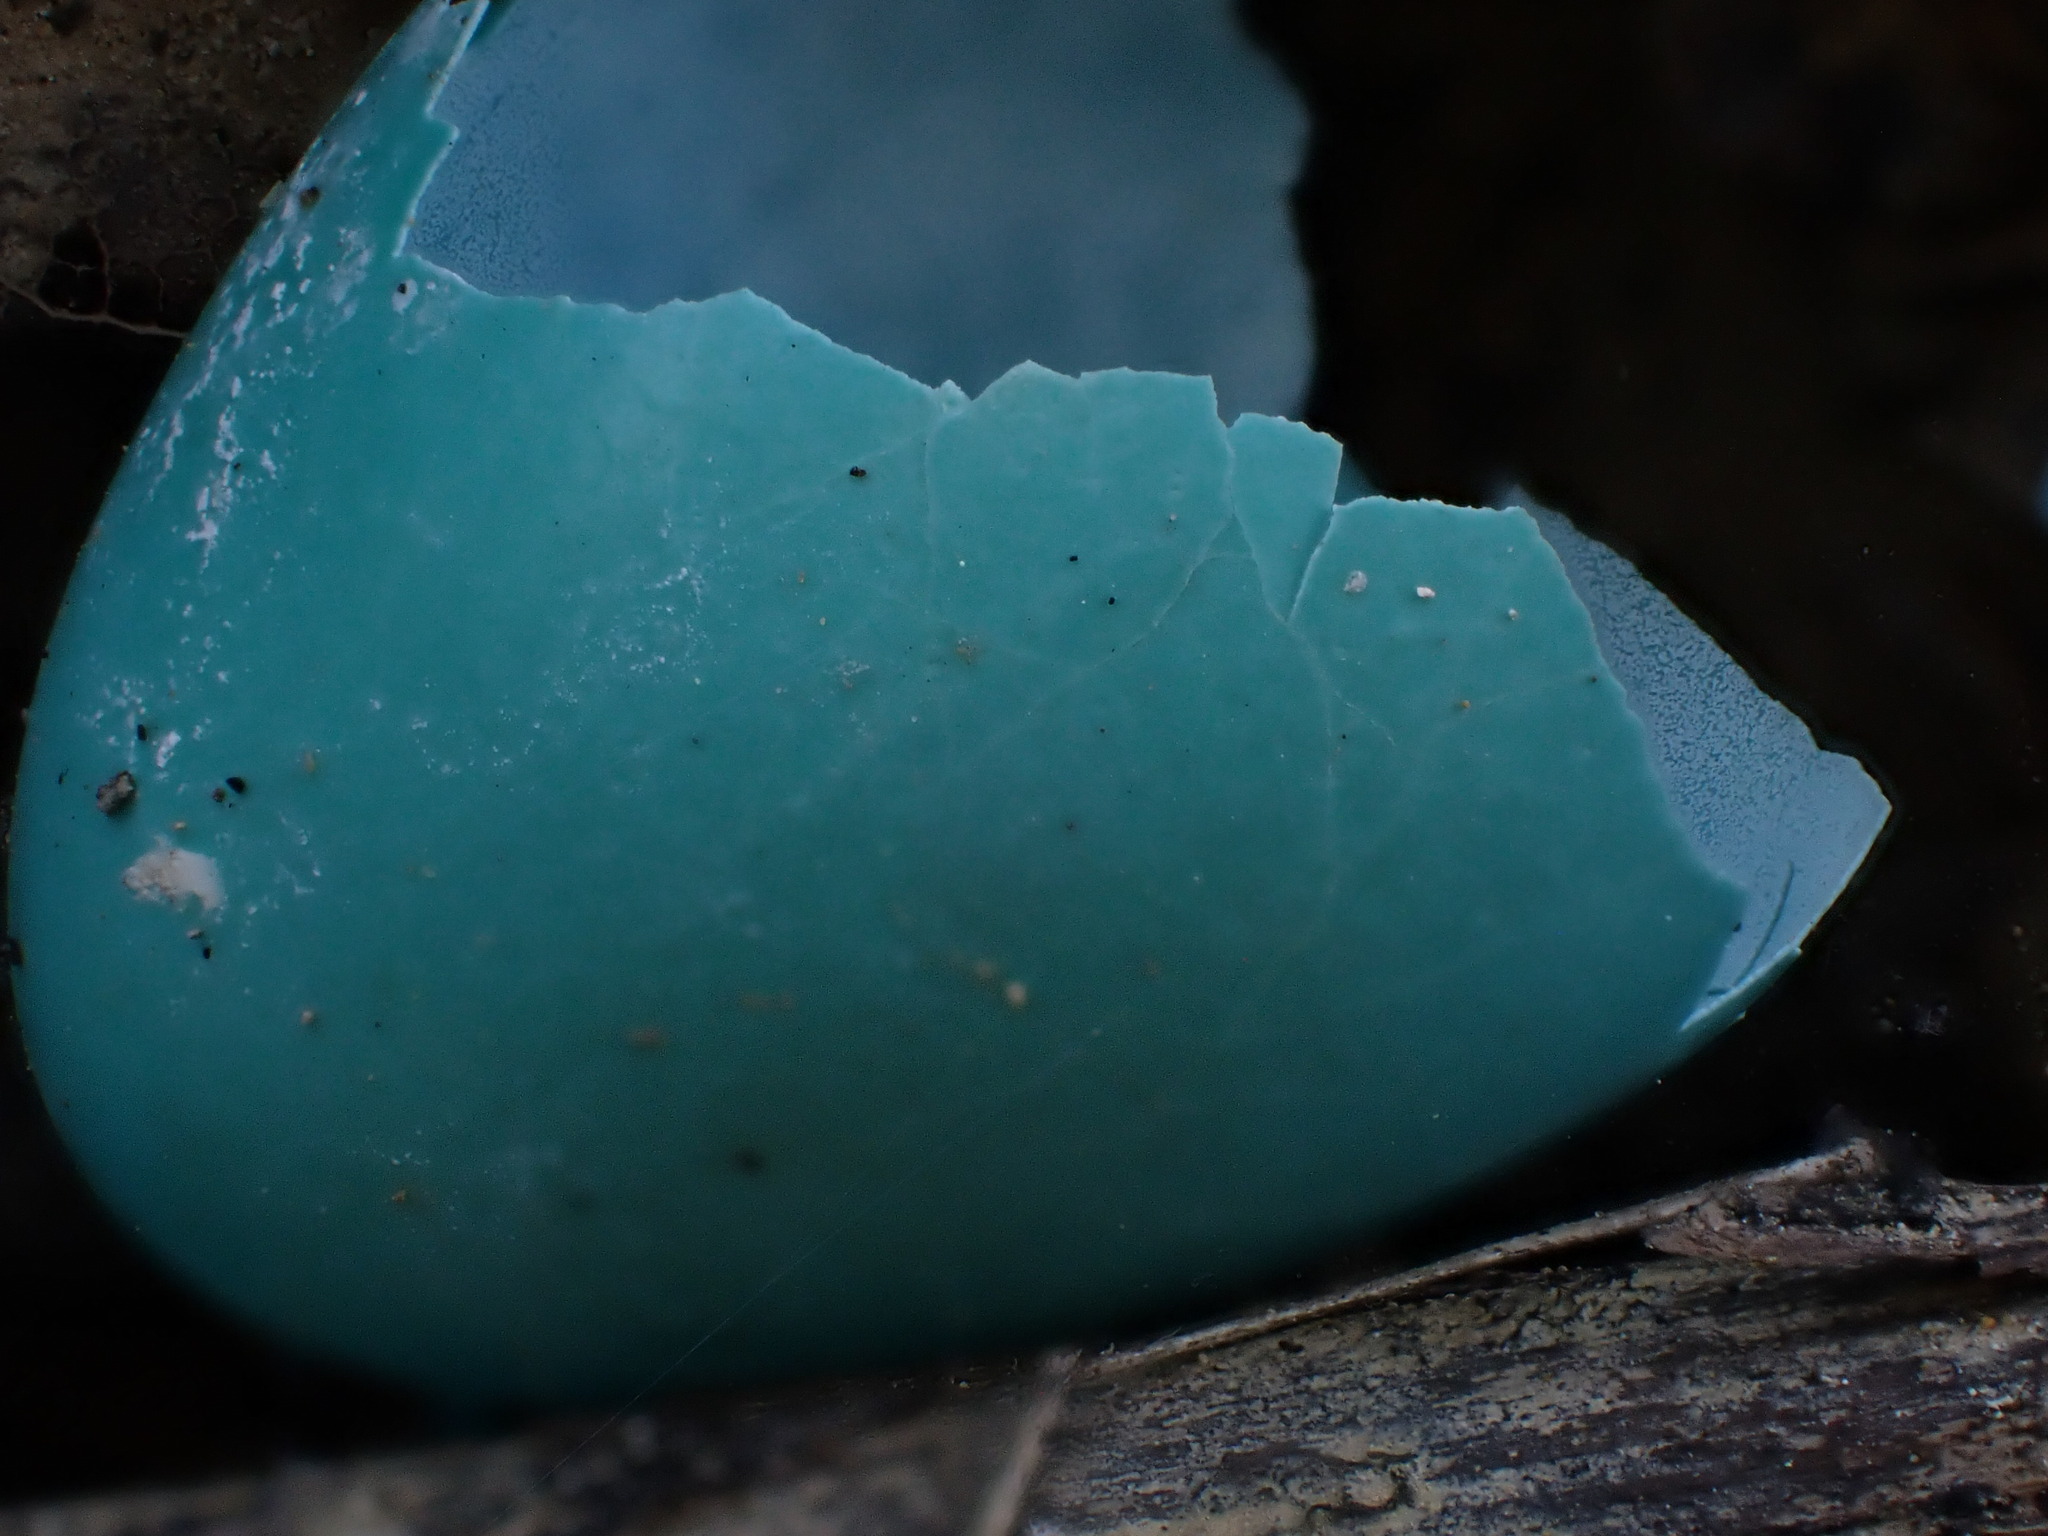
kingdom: Animalia
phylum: Chordata
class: Aves
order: Passeriformes
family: Turdidae
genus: Turdus
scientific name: Turdus migratorius
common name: American robin
